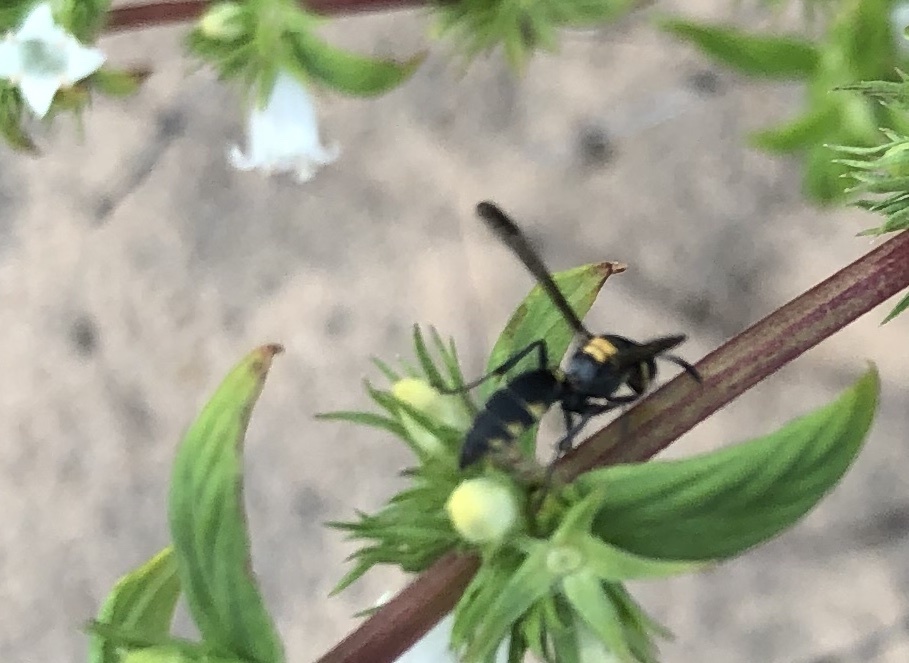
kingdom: Animalia
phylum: Arthropoda
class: Insecta
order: Hymenoptera
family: Eumenidae
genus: Polybia
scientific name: Polybia ruficeps
